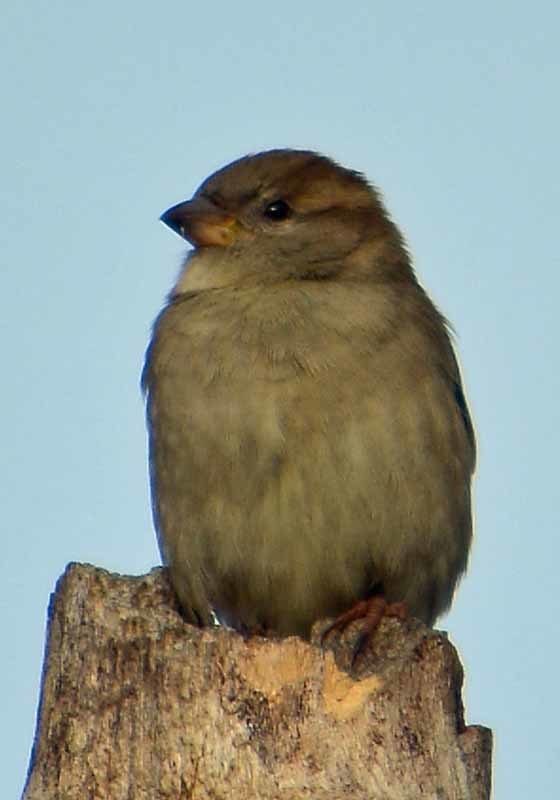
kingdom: Animalia
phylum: Chordata
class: Aves
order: Passeriformes
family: Passeridae
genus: Passer
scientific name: Passer domesticus
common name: House sparrow
